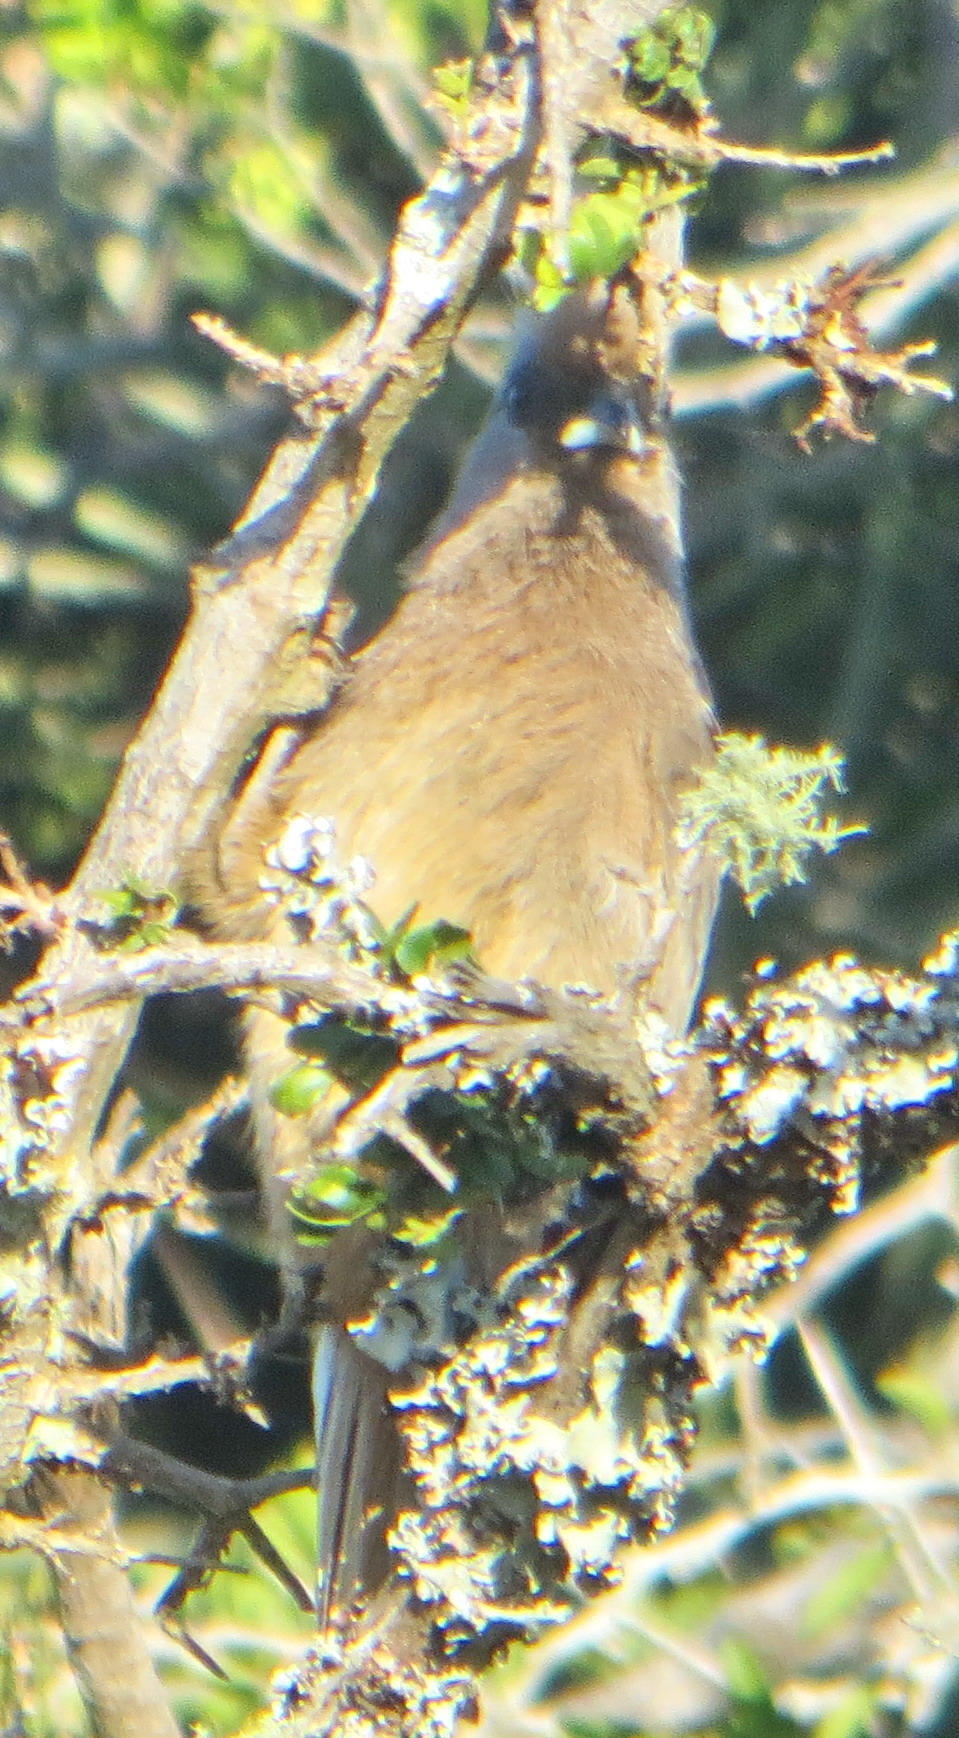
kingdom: Animalia
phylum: Chordata
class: Aves
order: Coliiformes
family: Coliidae
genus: Colius
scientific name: Colius striatus
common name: Speckled mousebird
